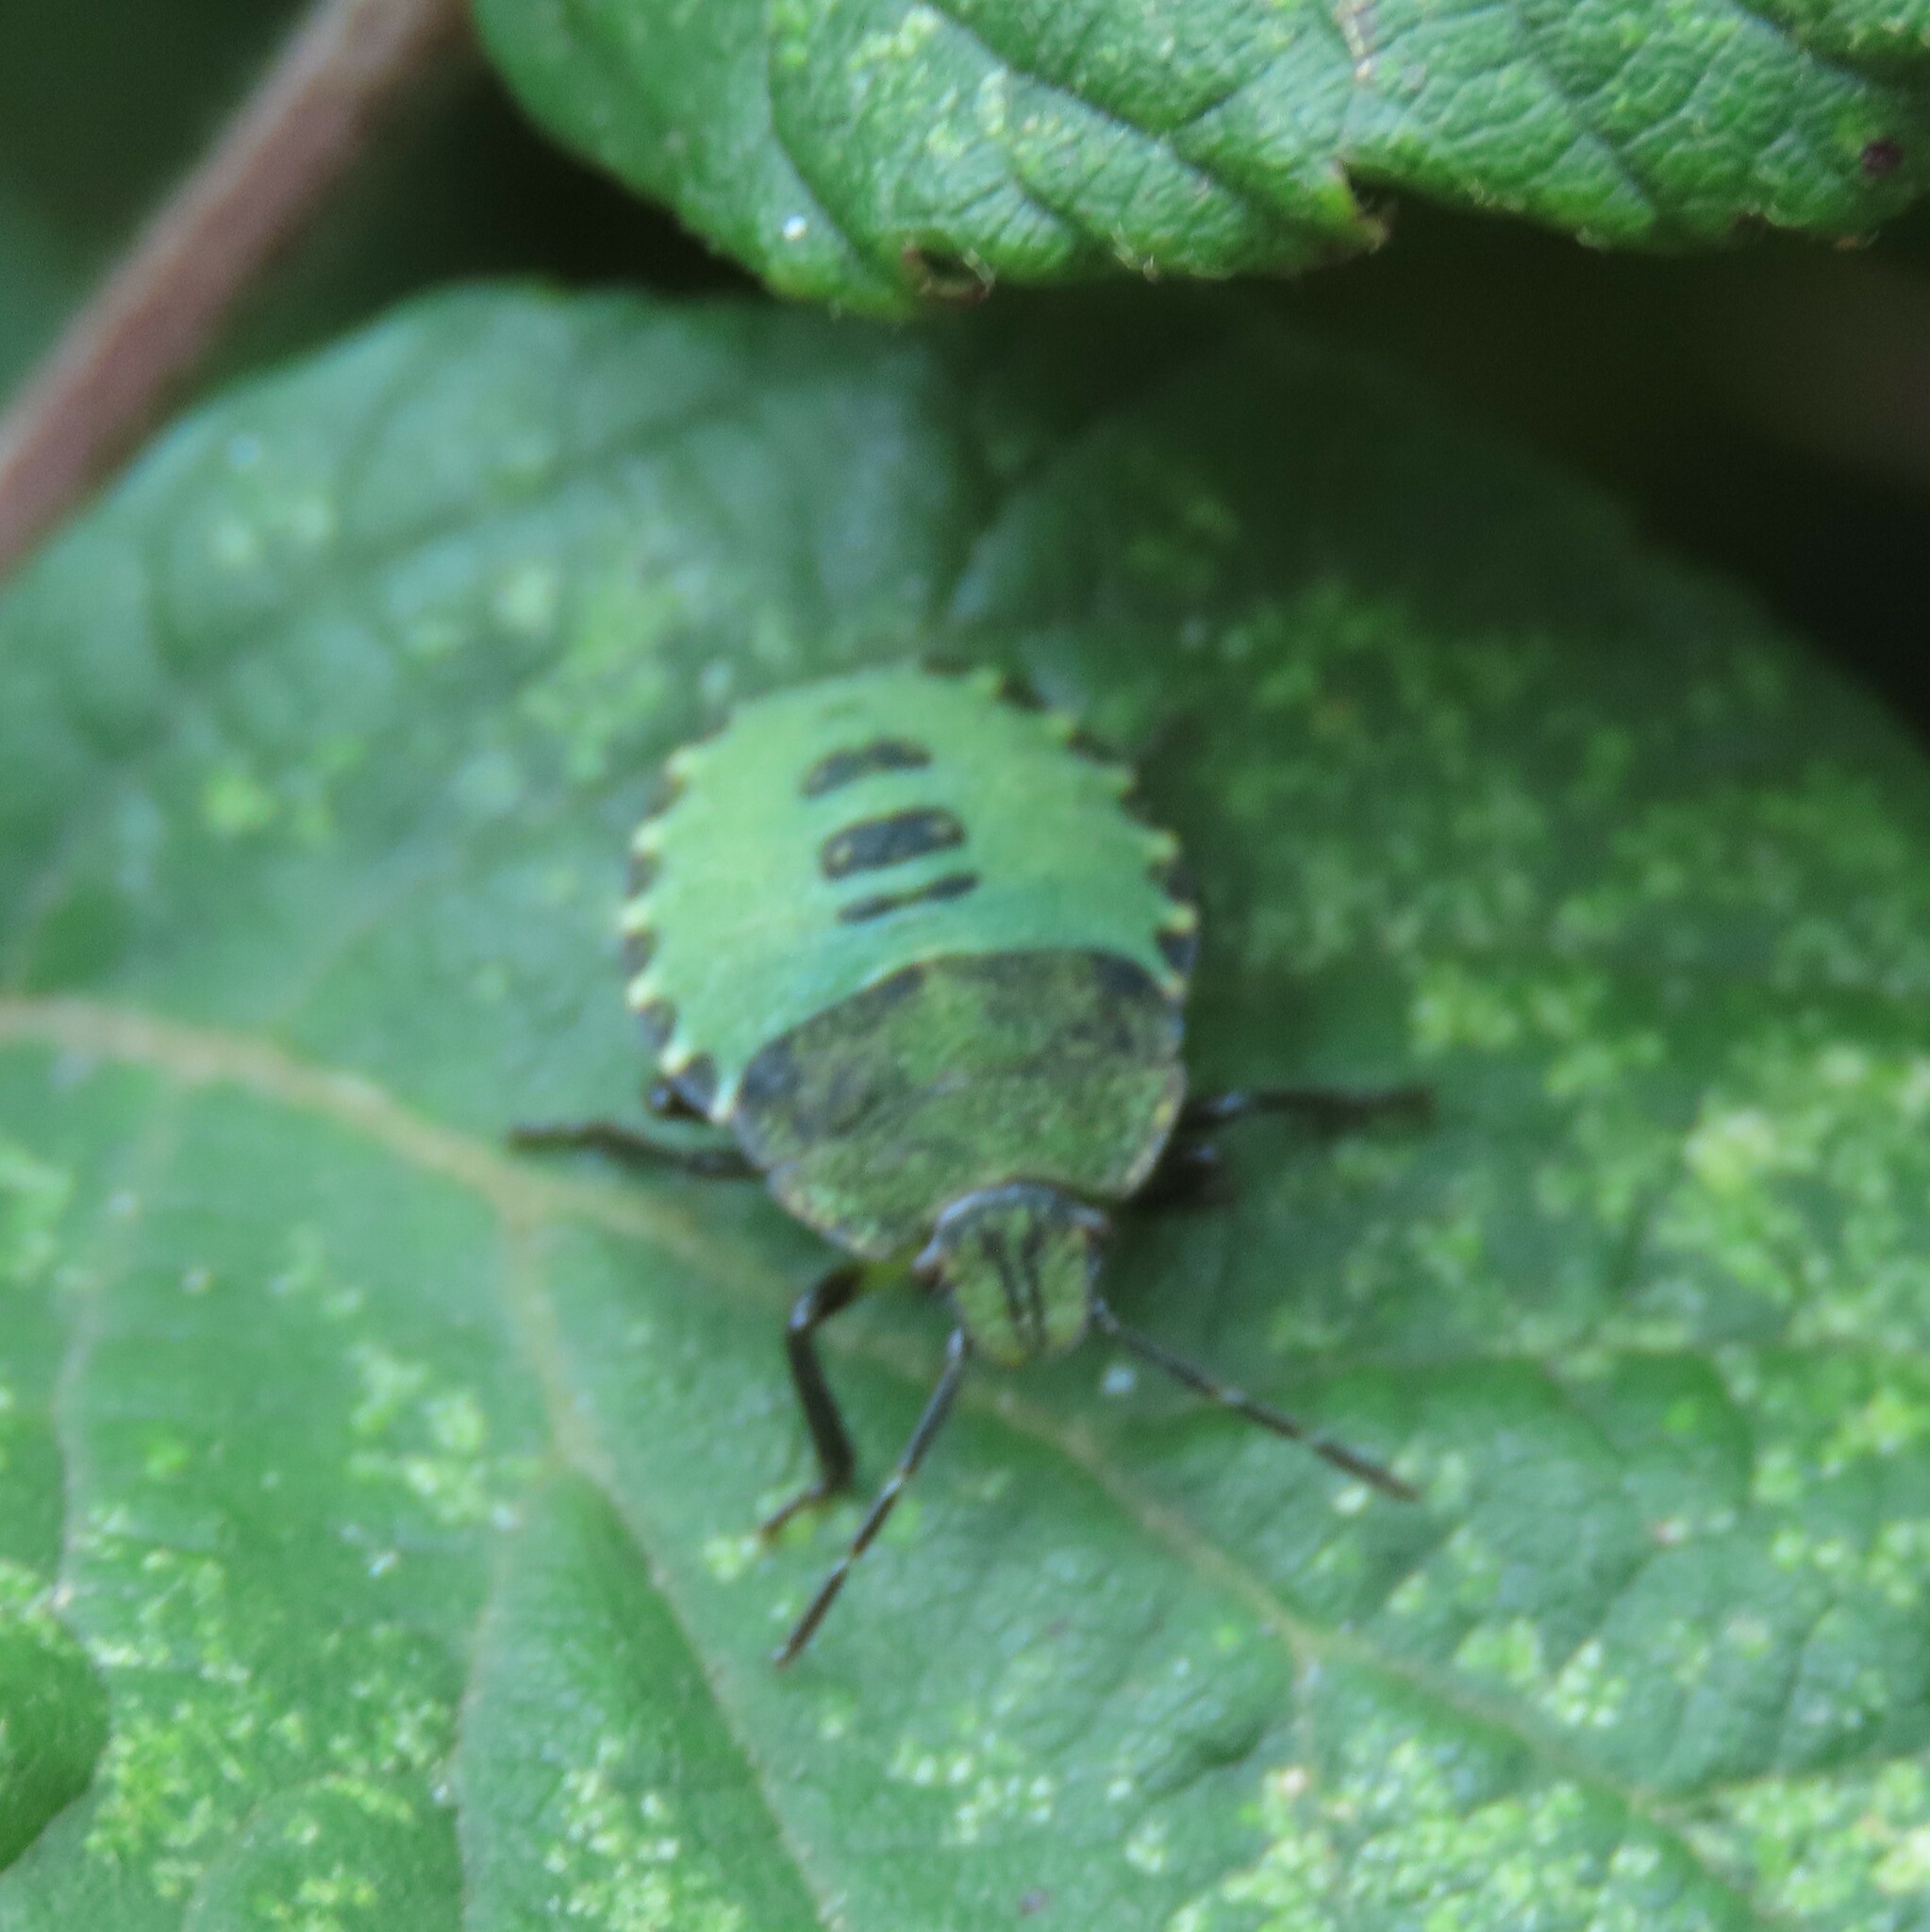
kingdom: Animalia
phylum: Arthropoda
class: Insecta
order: Hemiptera
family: Pentatomidae
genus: Palomena
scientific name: Palomena prasina
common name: Green shieldbug
